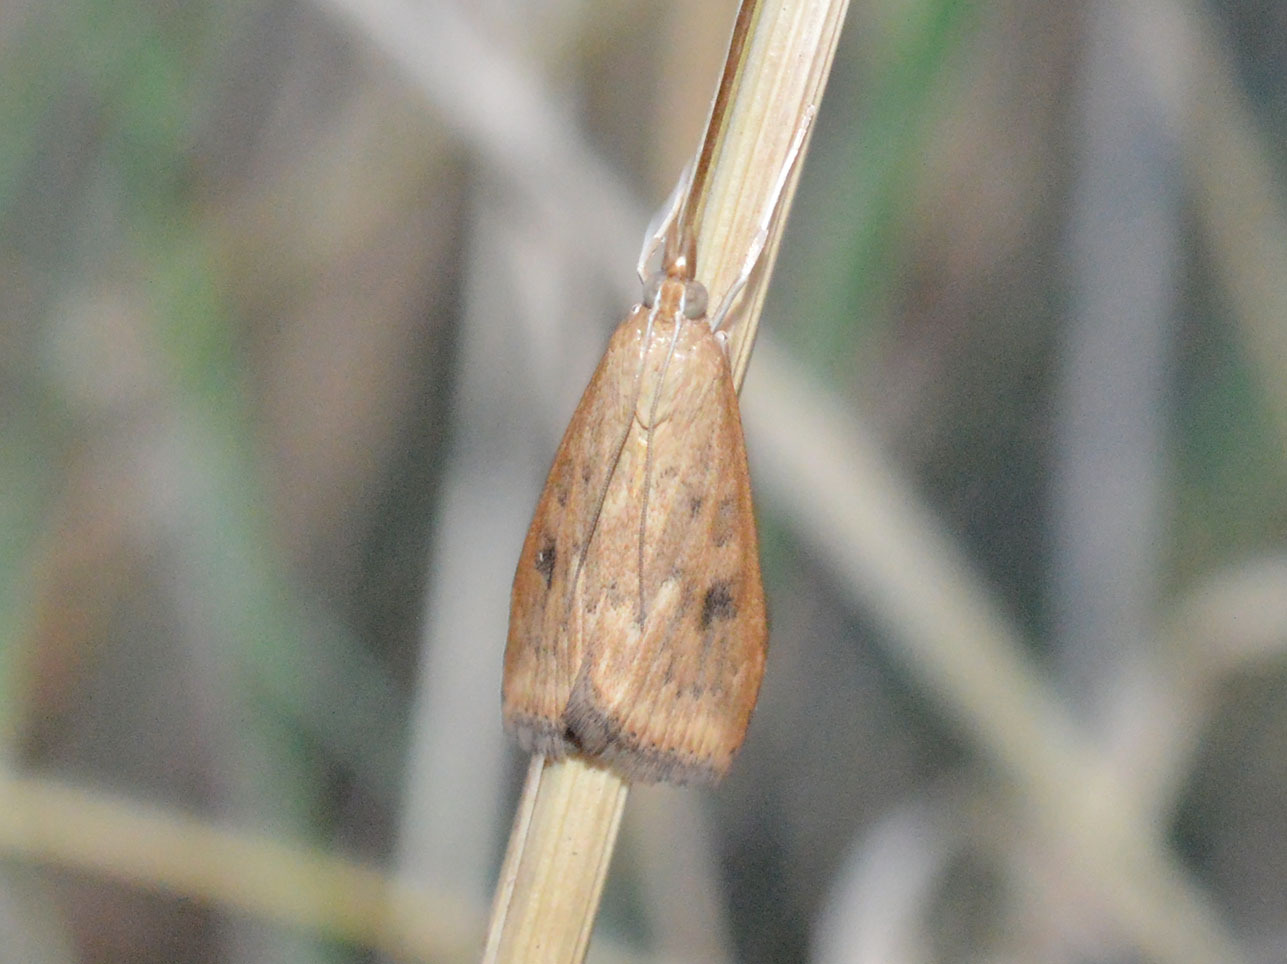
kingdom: Animalia
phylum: Arthropoda
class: Insecta
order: Lepidoptera
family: Crambidae
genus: Udea
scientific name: Udea ferrugalis
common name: Rusty dot
